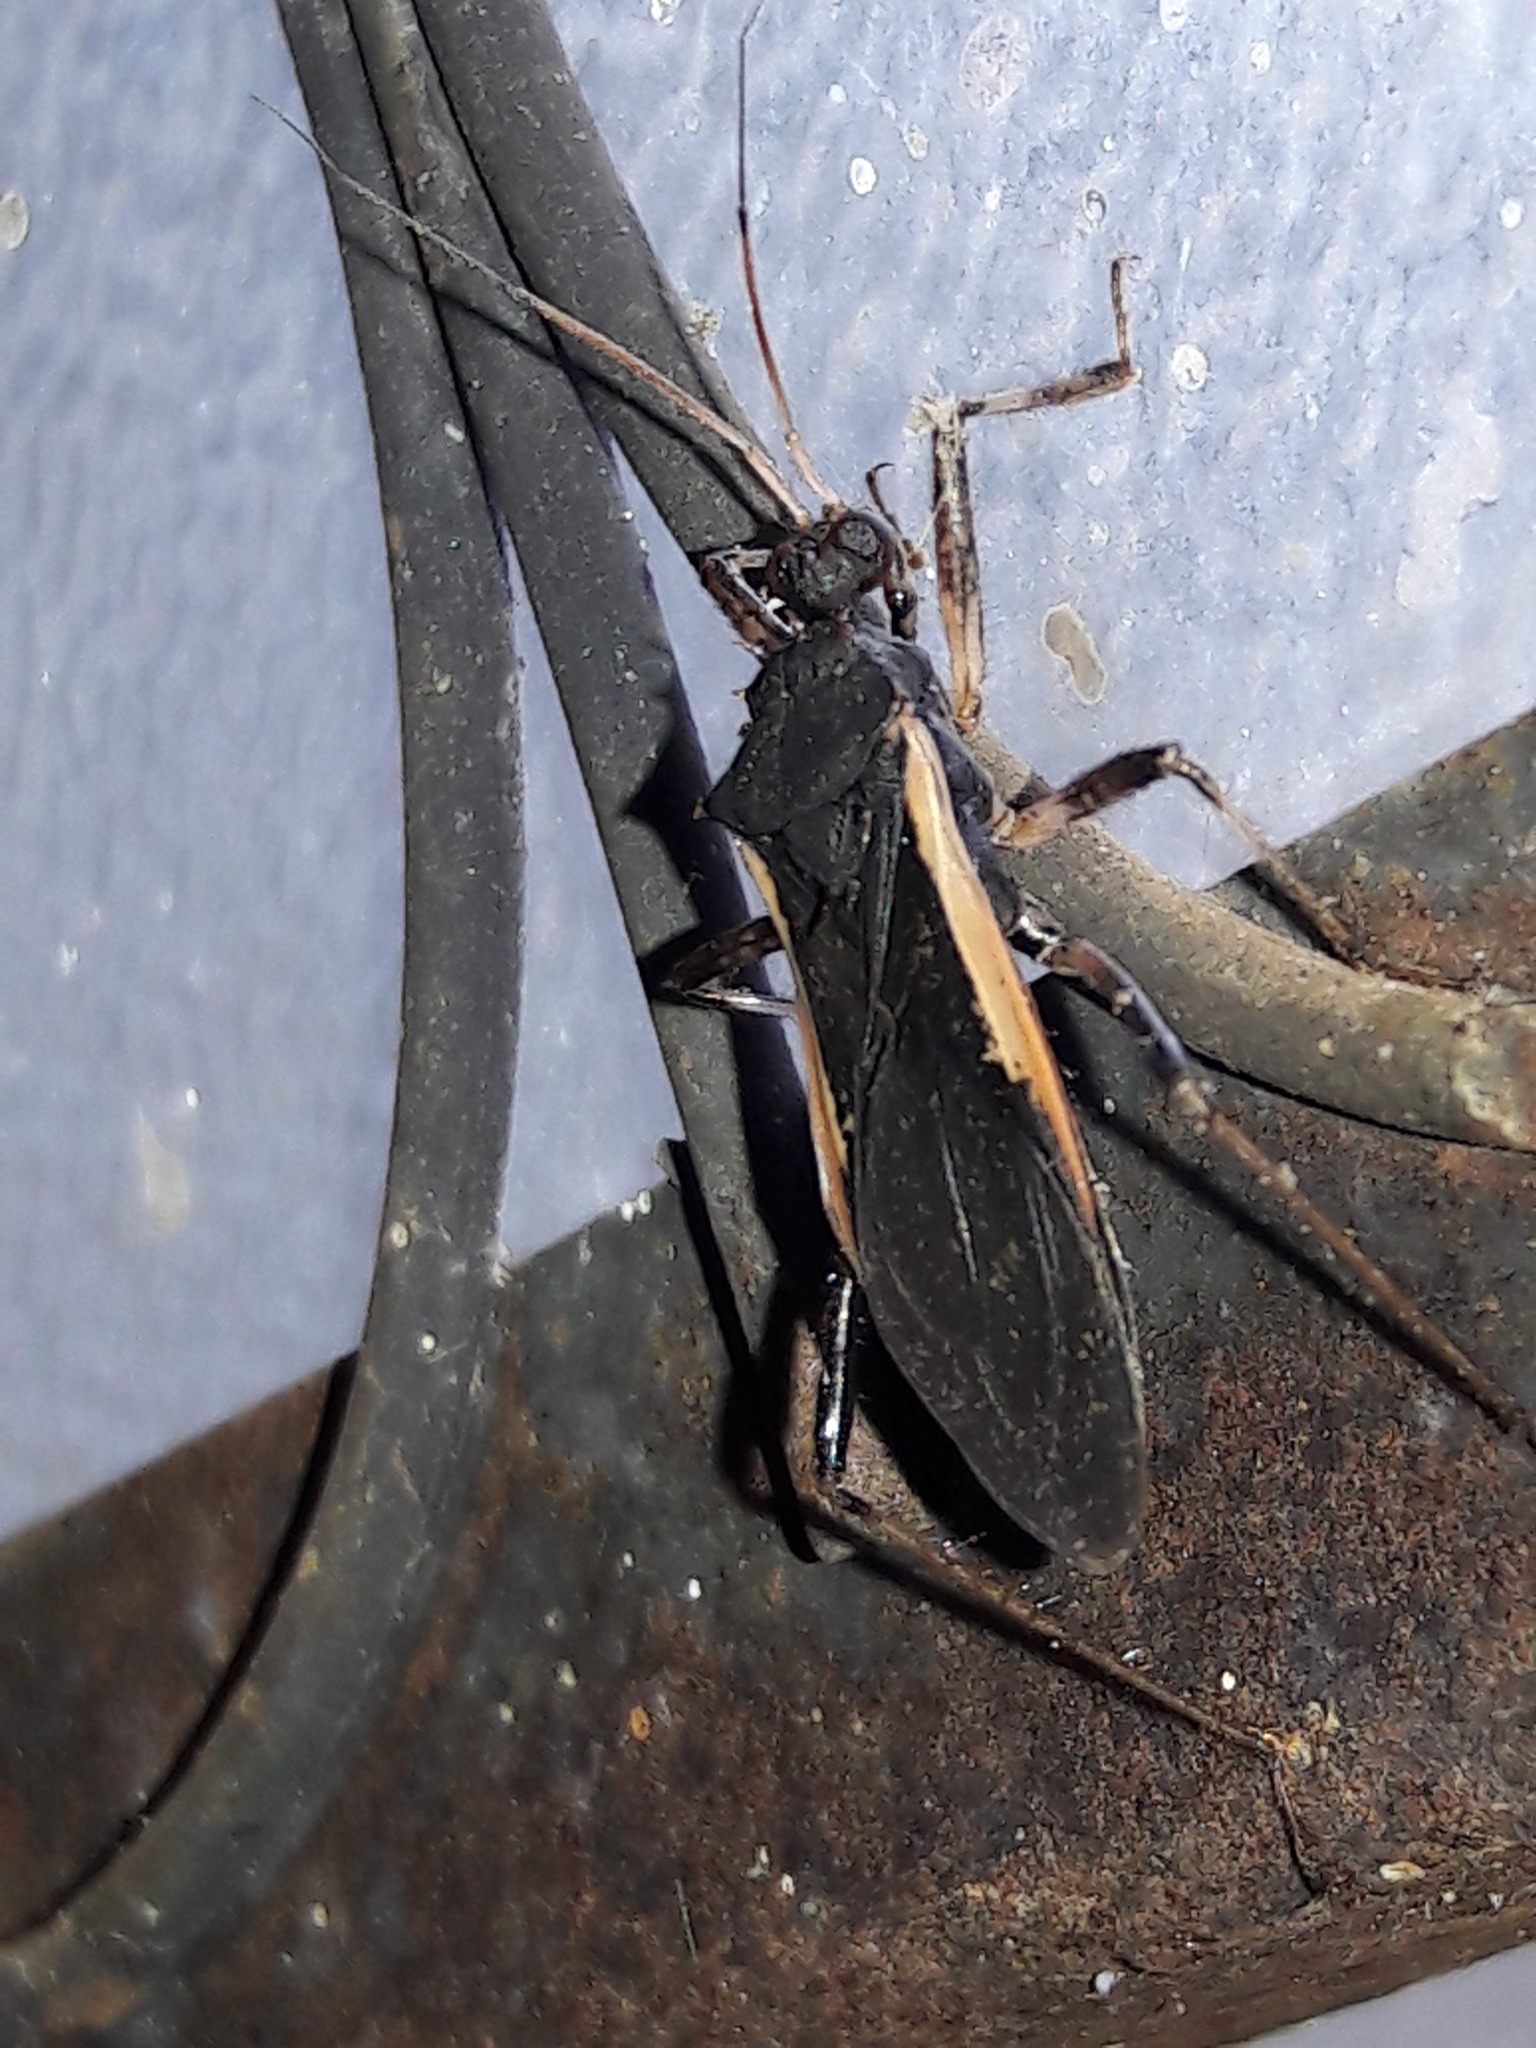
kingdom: Animalia
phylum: Arthropoda
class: Insecta
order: Hemiptera
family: Reduviidae
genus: Zelurus
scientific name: Zelurus albispinus
